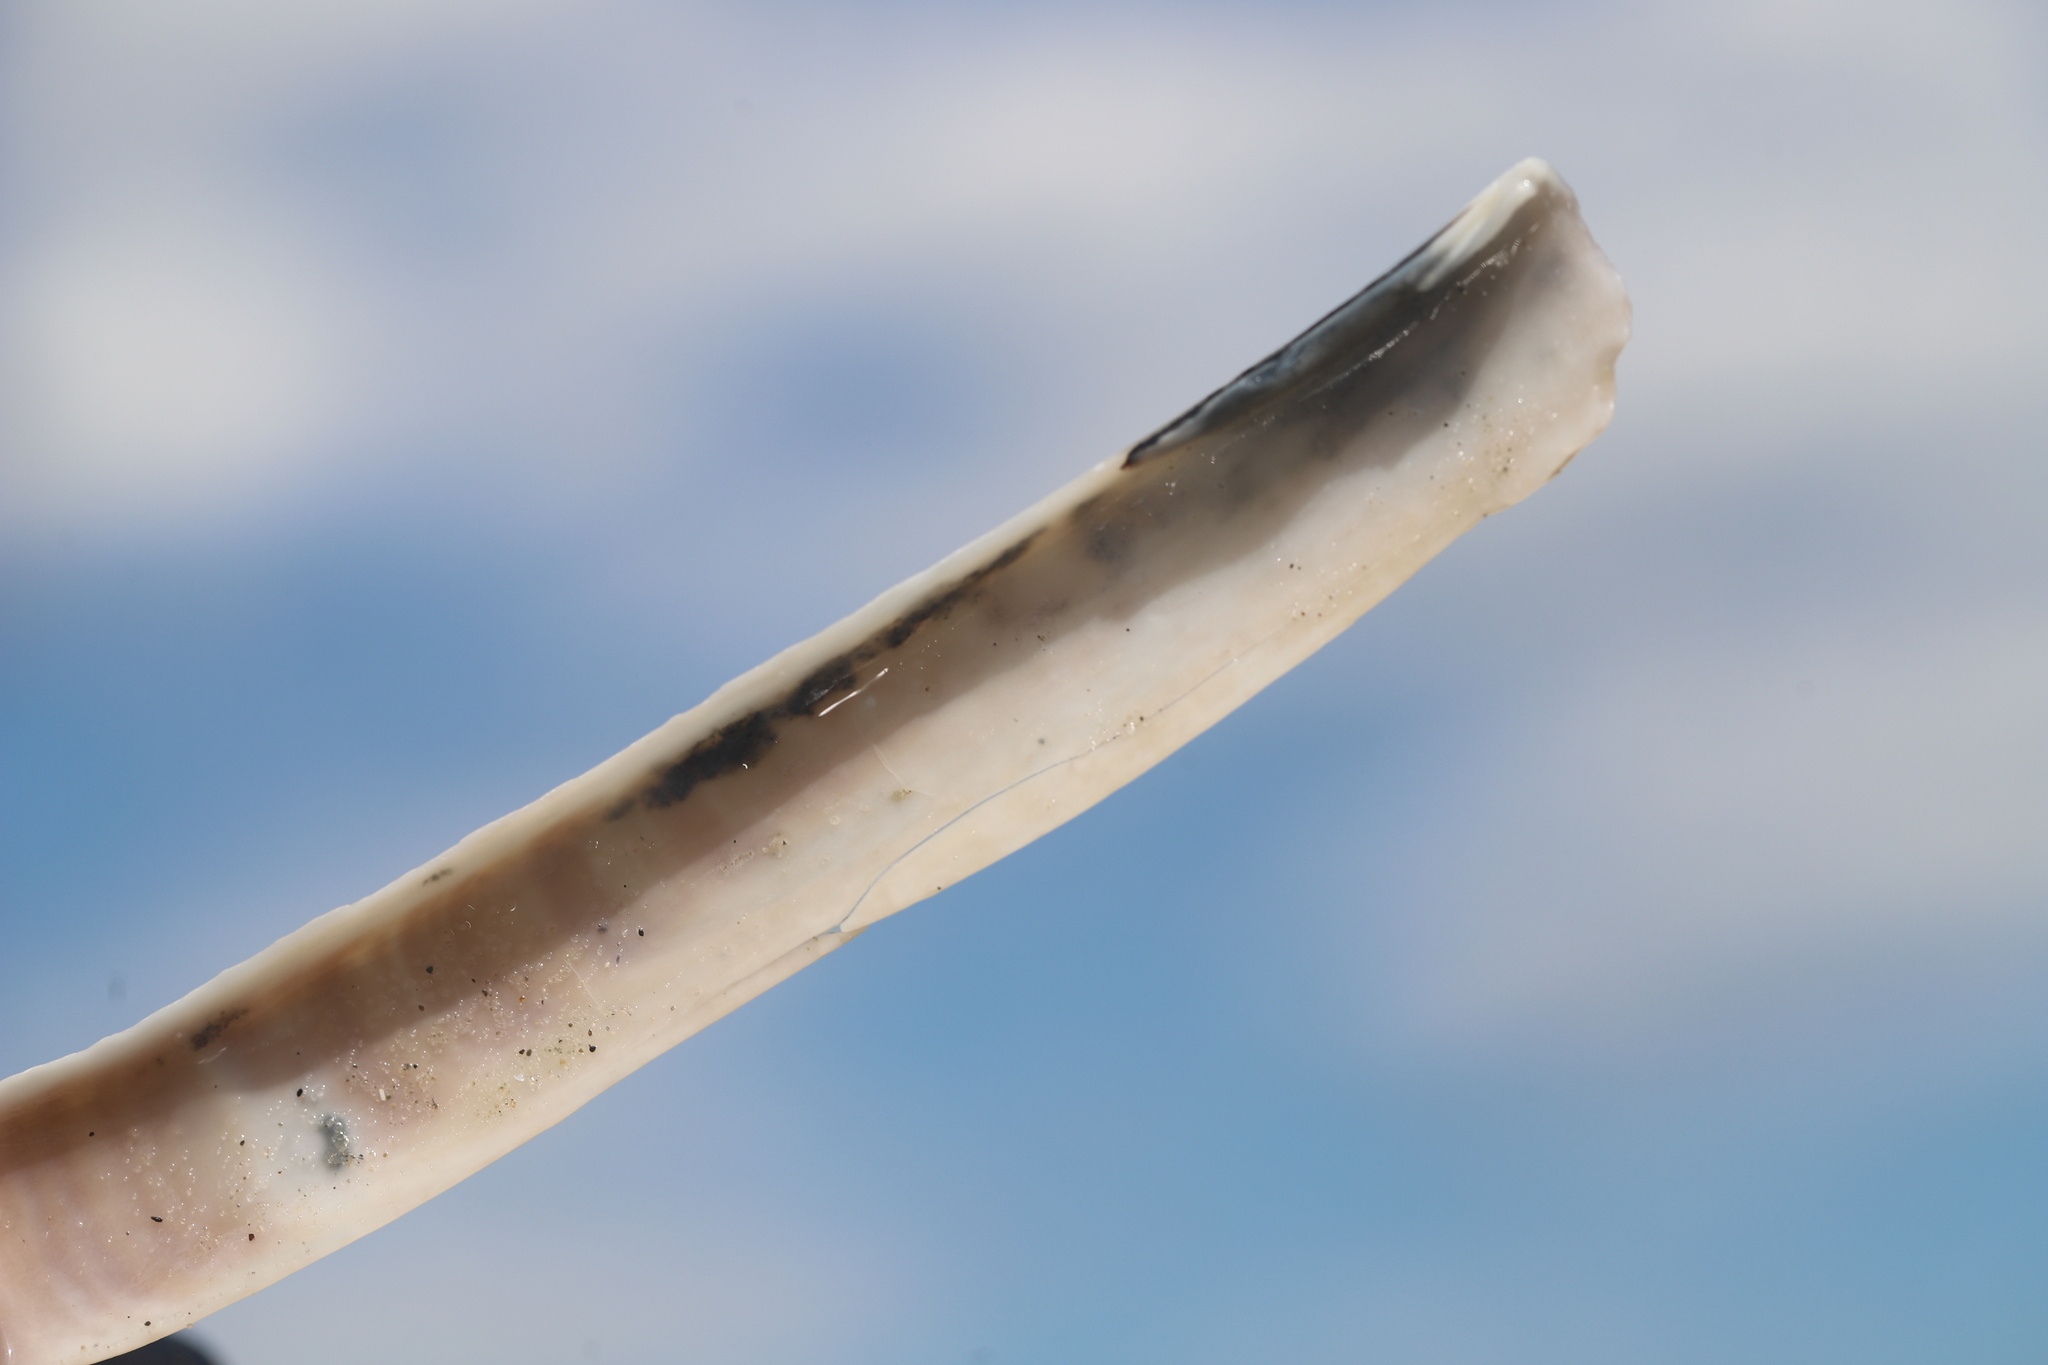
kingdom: Animalia
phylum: Mollusca
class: Bivalvia
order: Adapedonta
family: Pharidae
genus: Ensis
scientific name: Ensis leei
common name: American jack knife clam
